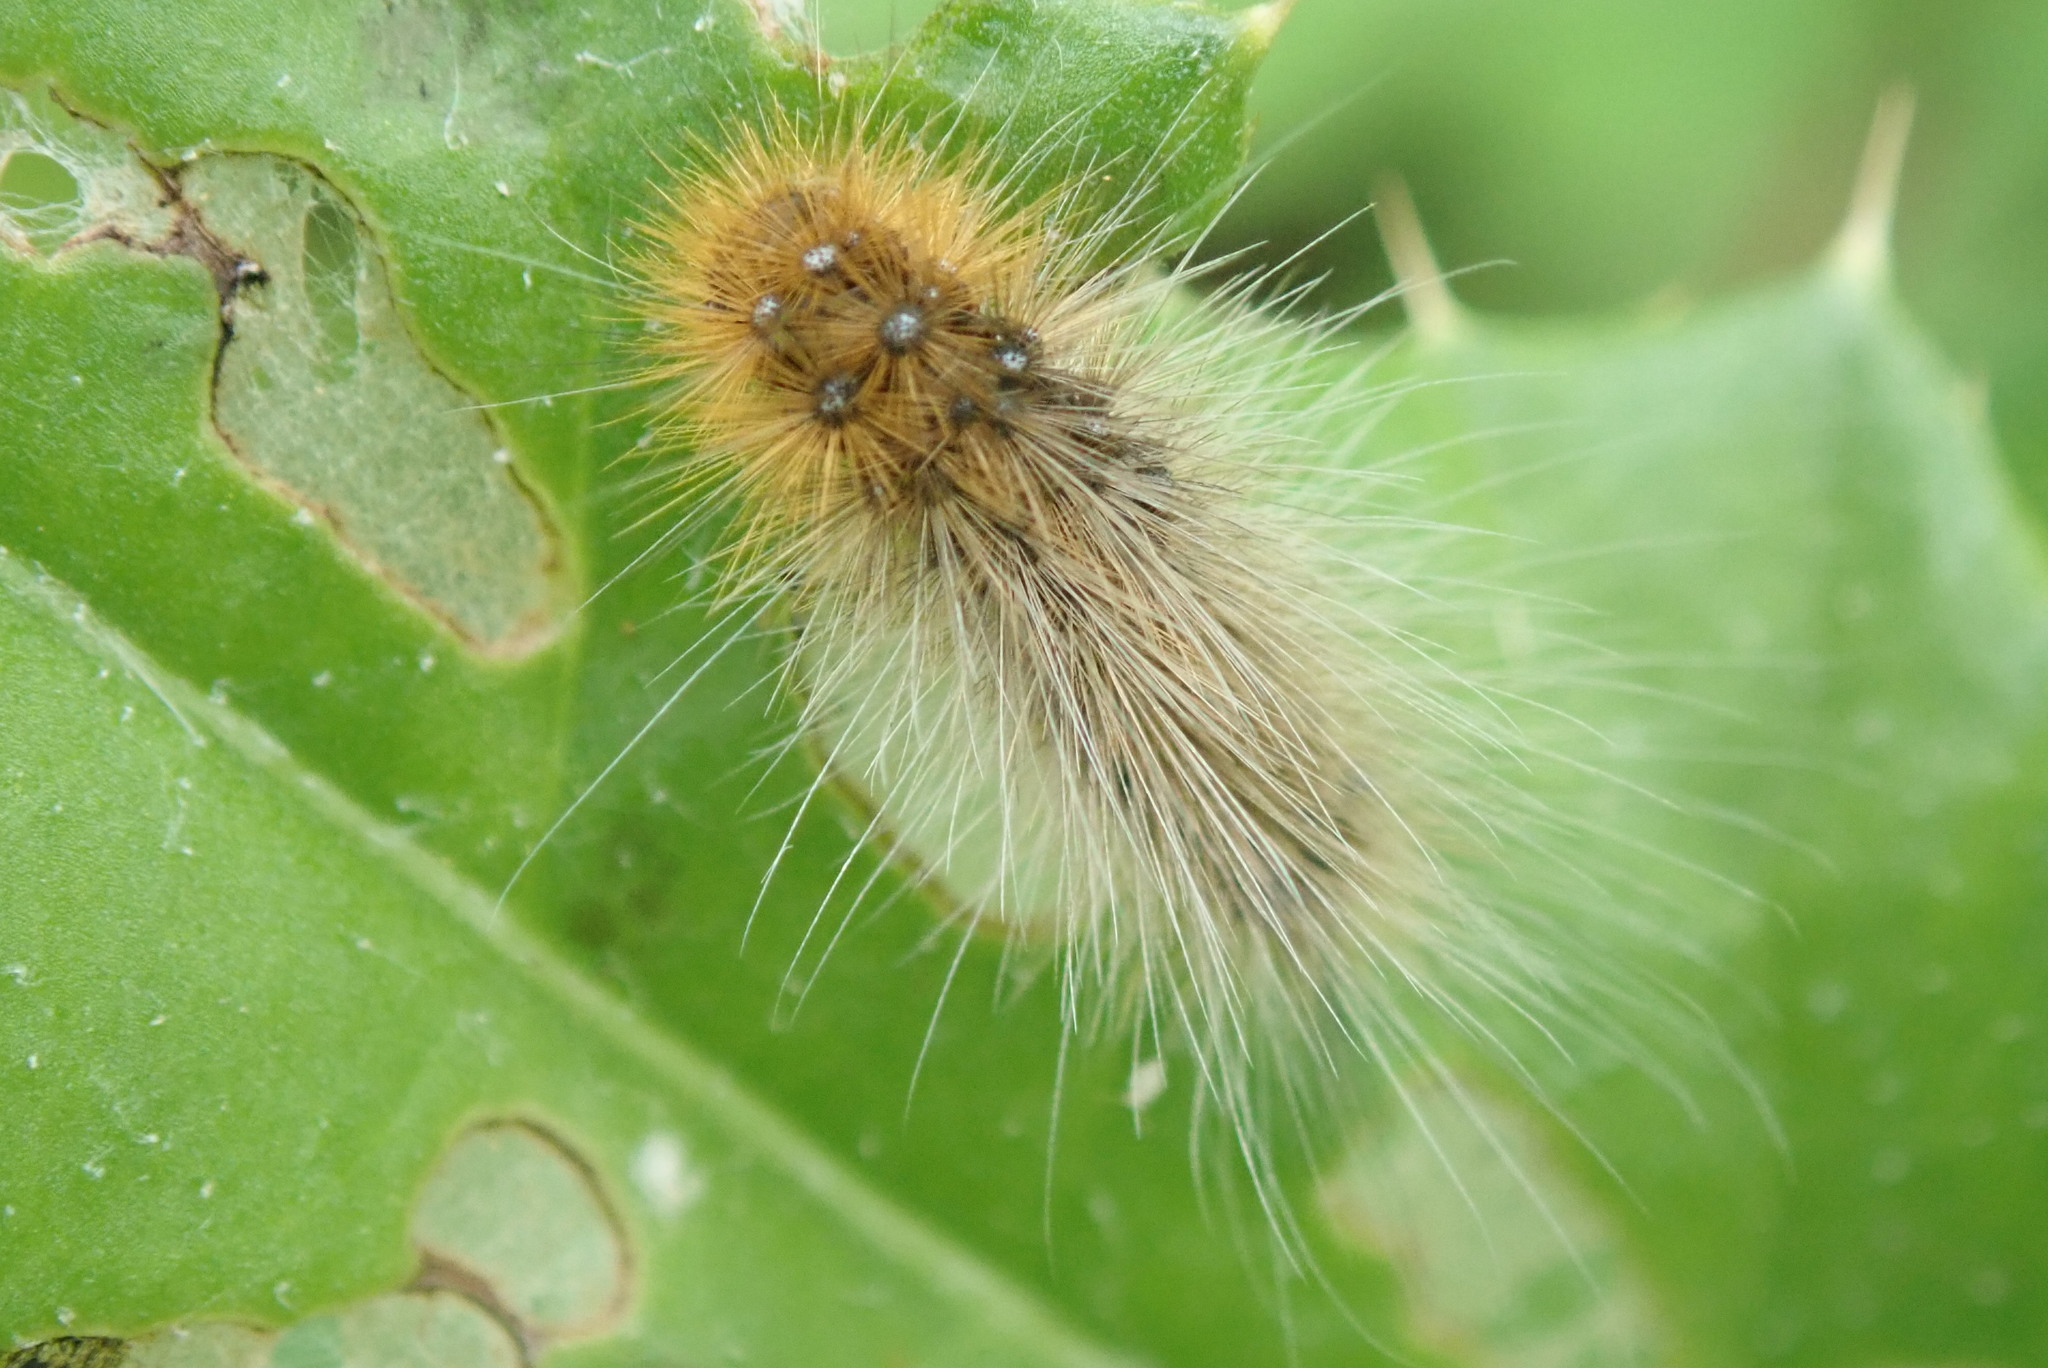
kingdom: Animalia
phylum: Arthropoda
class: Insecta
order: Lepidoptera
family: Erebidae
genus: Arctia
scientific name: Arctia caja
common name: Garden tiger
